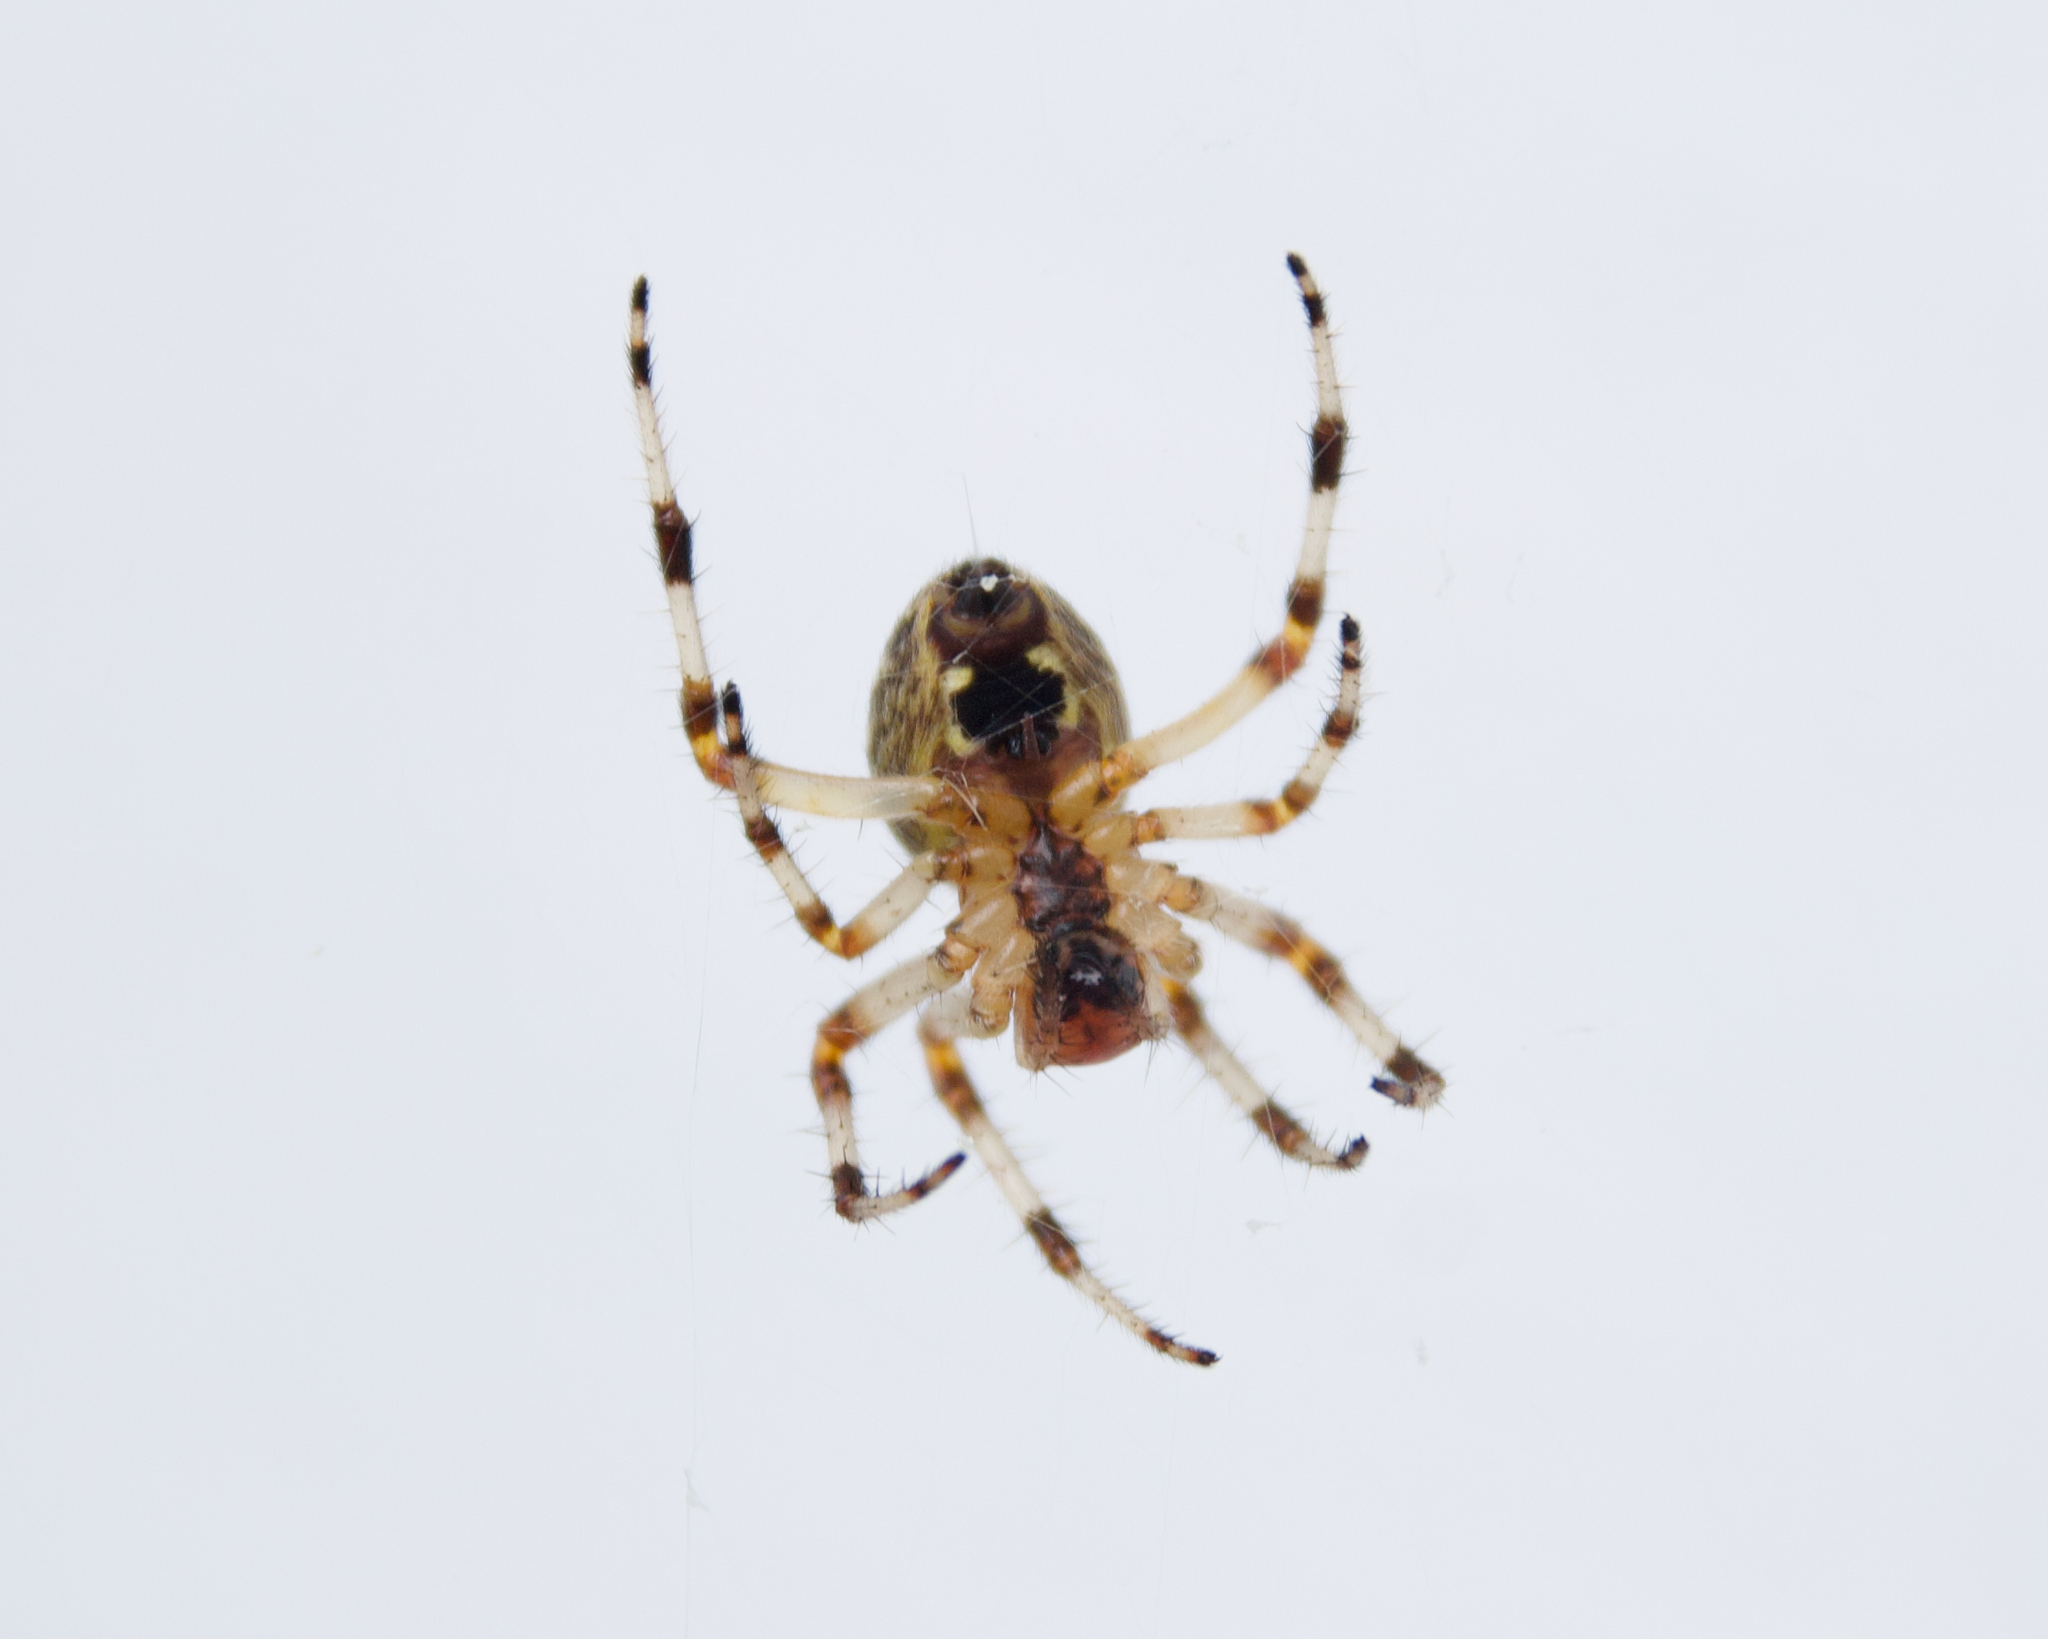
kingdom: Animalia
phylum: Arthropoda
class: Arachnida
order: Araneae
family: Araneidae
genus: Araneus
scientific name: Araneus marmoreus
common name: Marbled orbweaver
